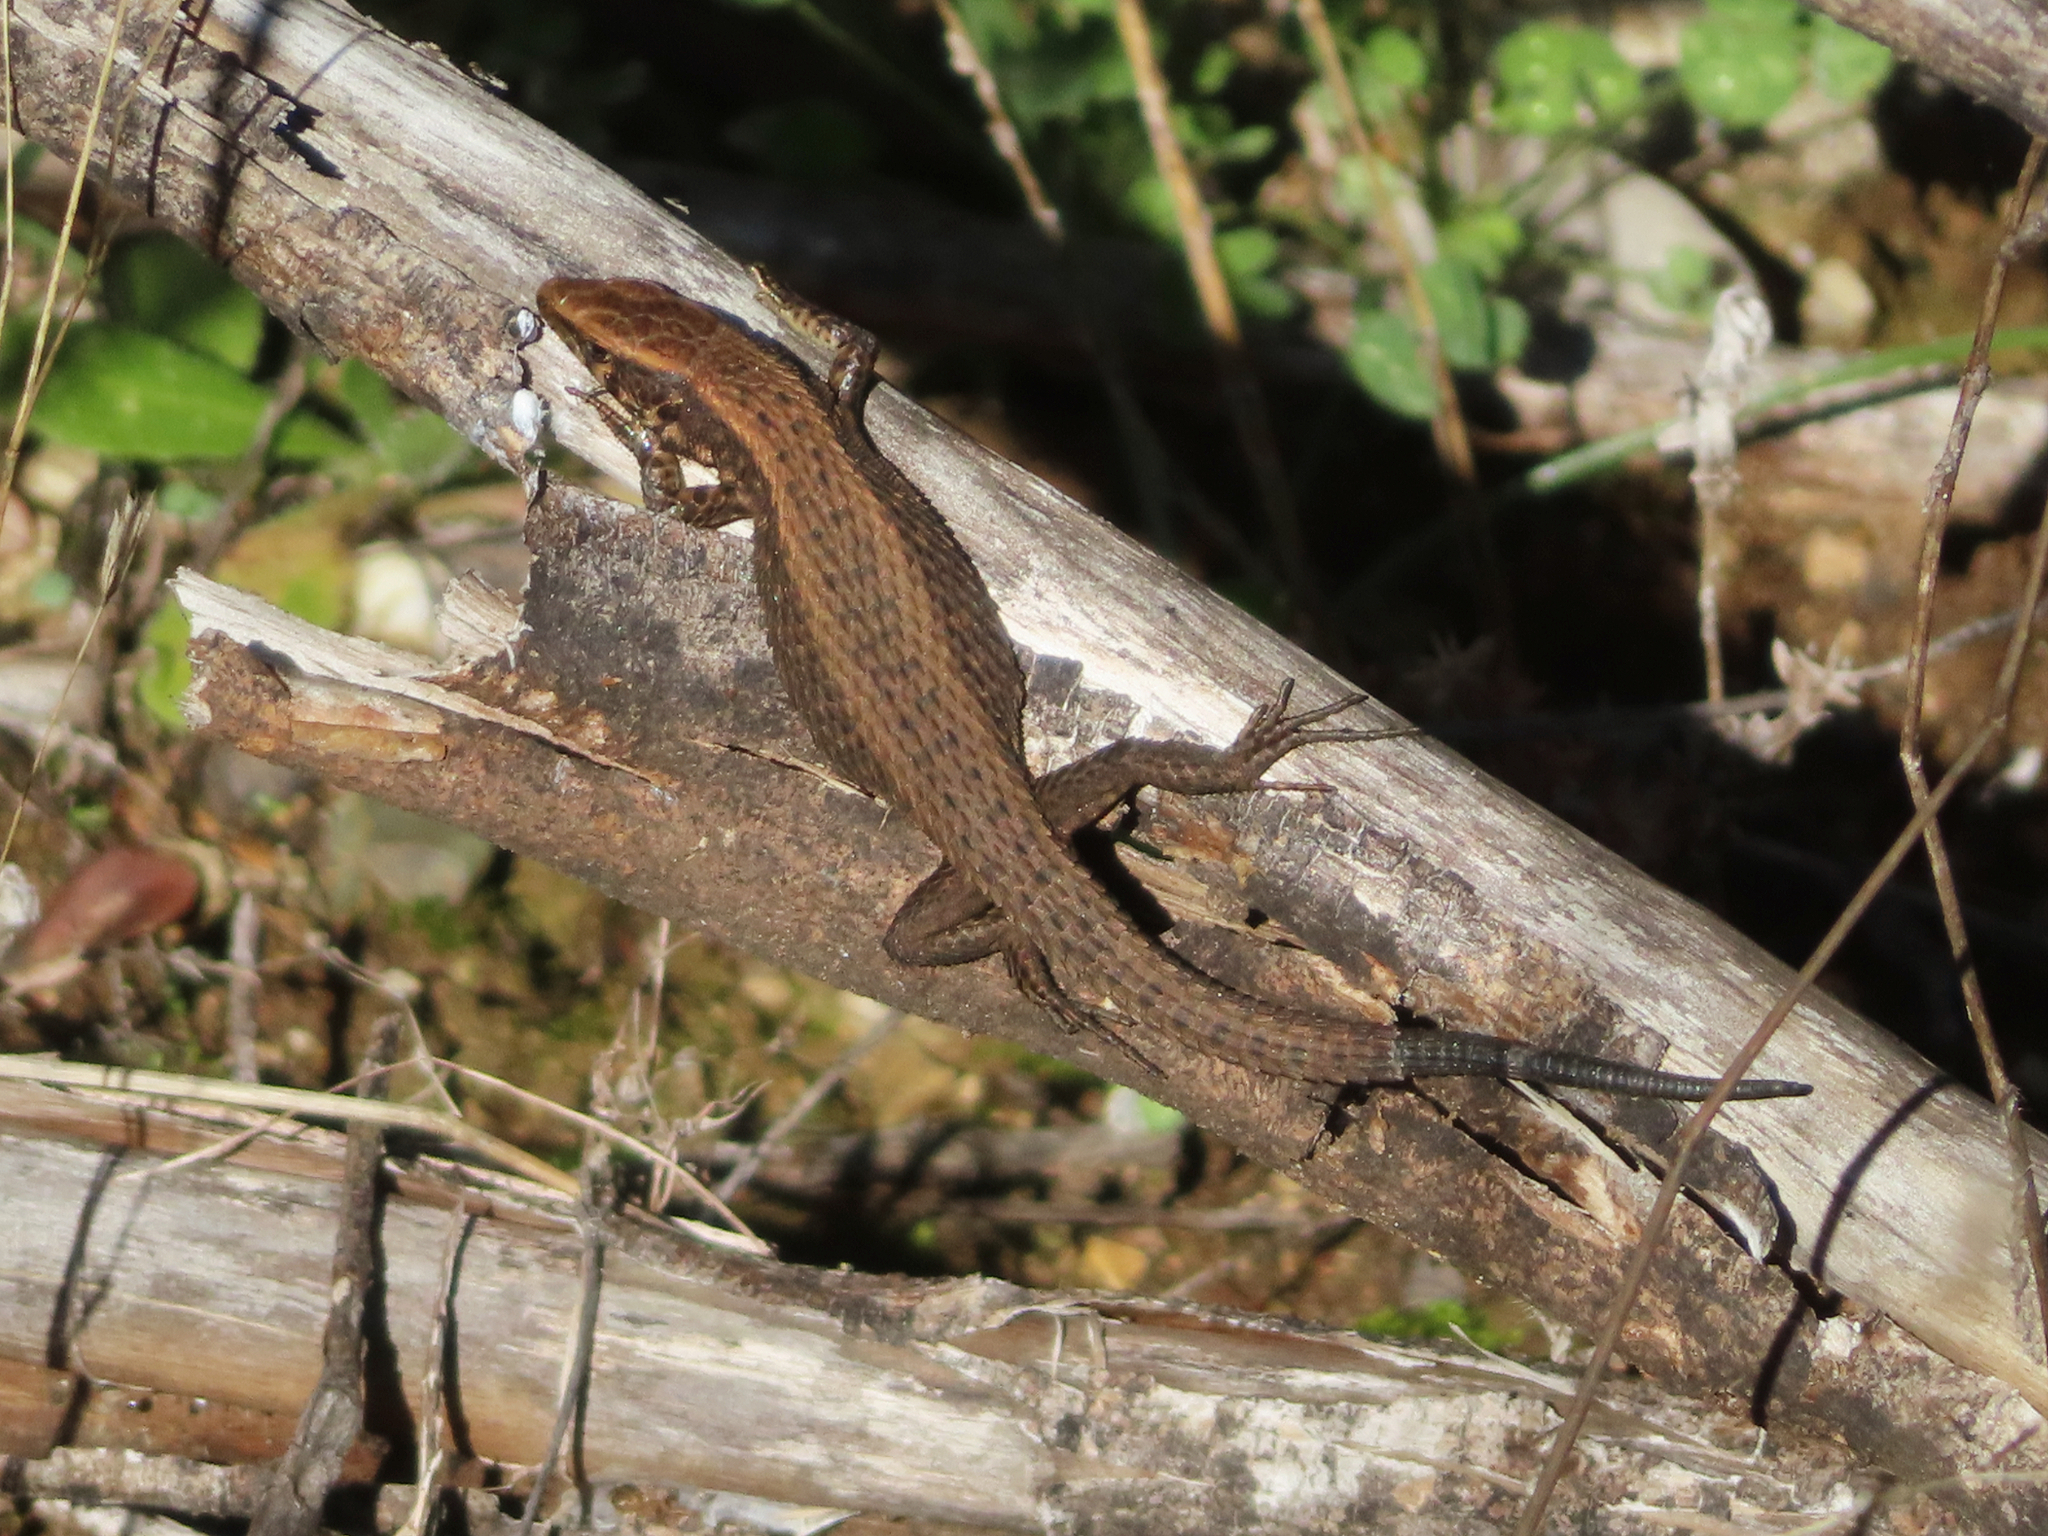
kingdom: Animalia
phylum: Chordata
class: Squamata
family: Lacertidae
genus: Algyroides
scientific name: Algyroides moreoticus
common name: Greek algyroides
